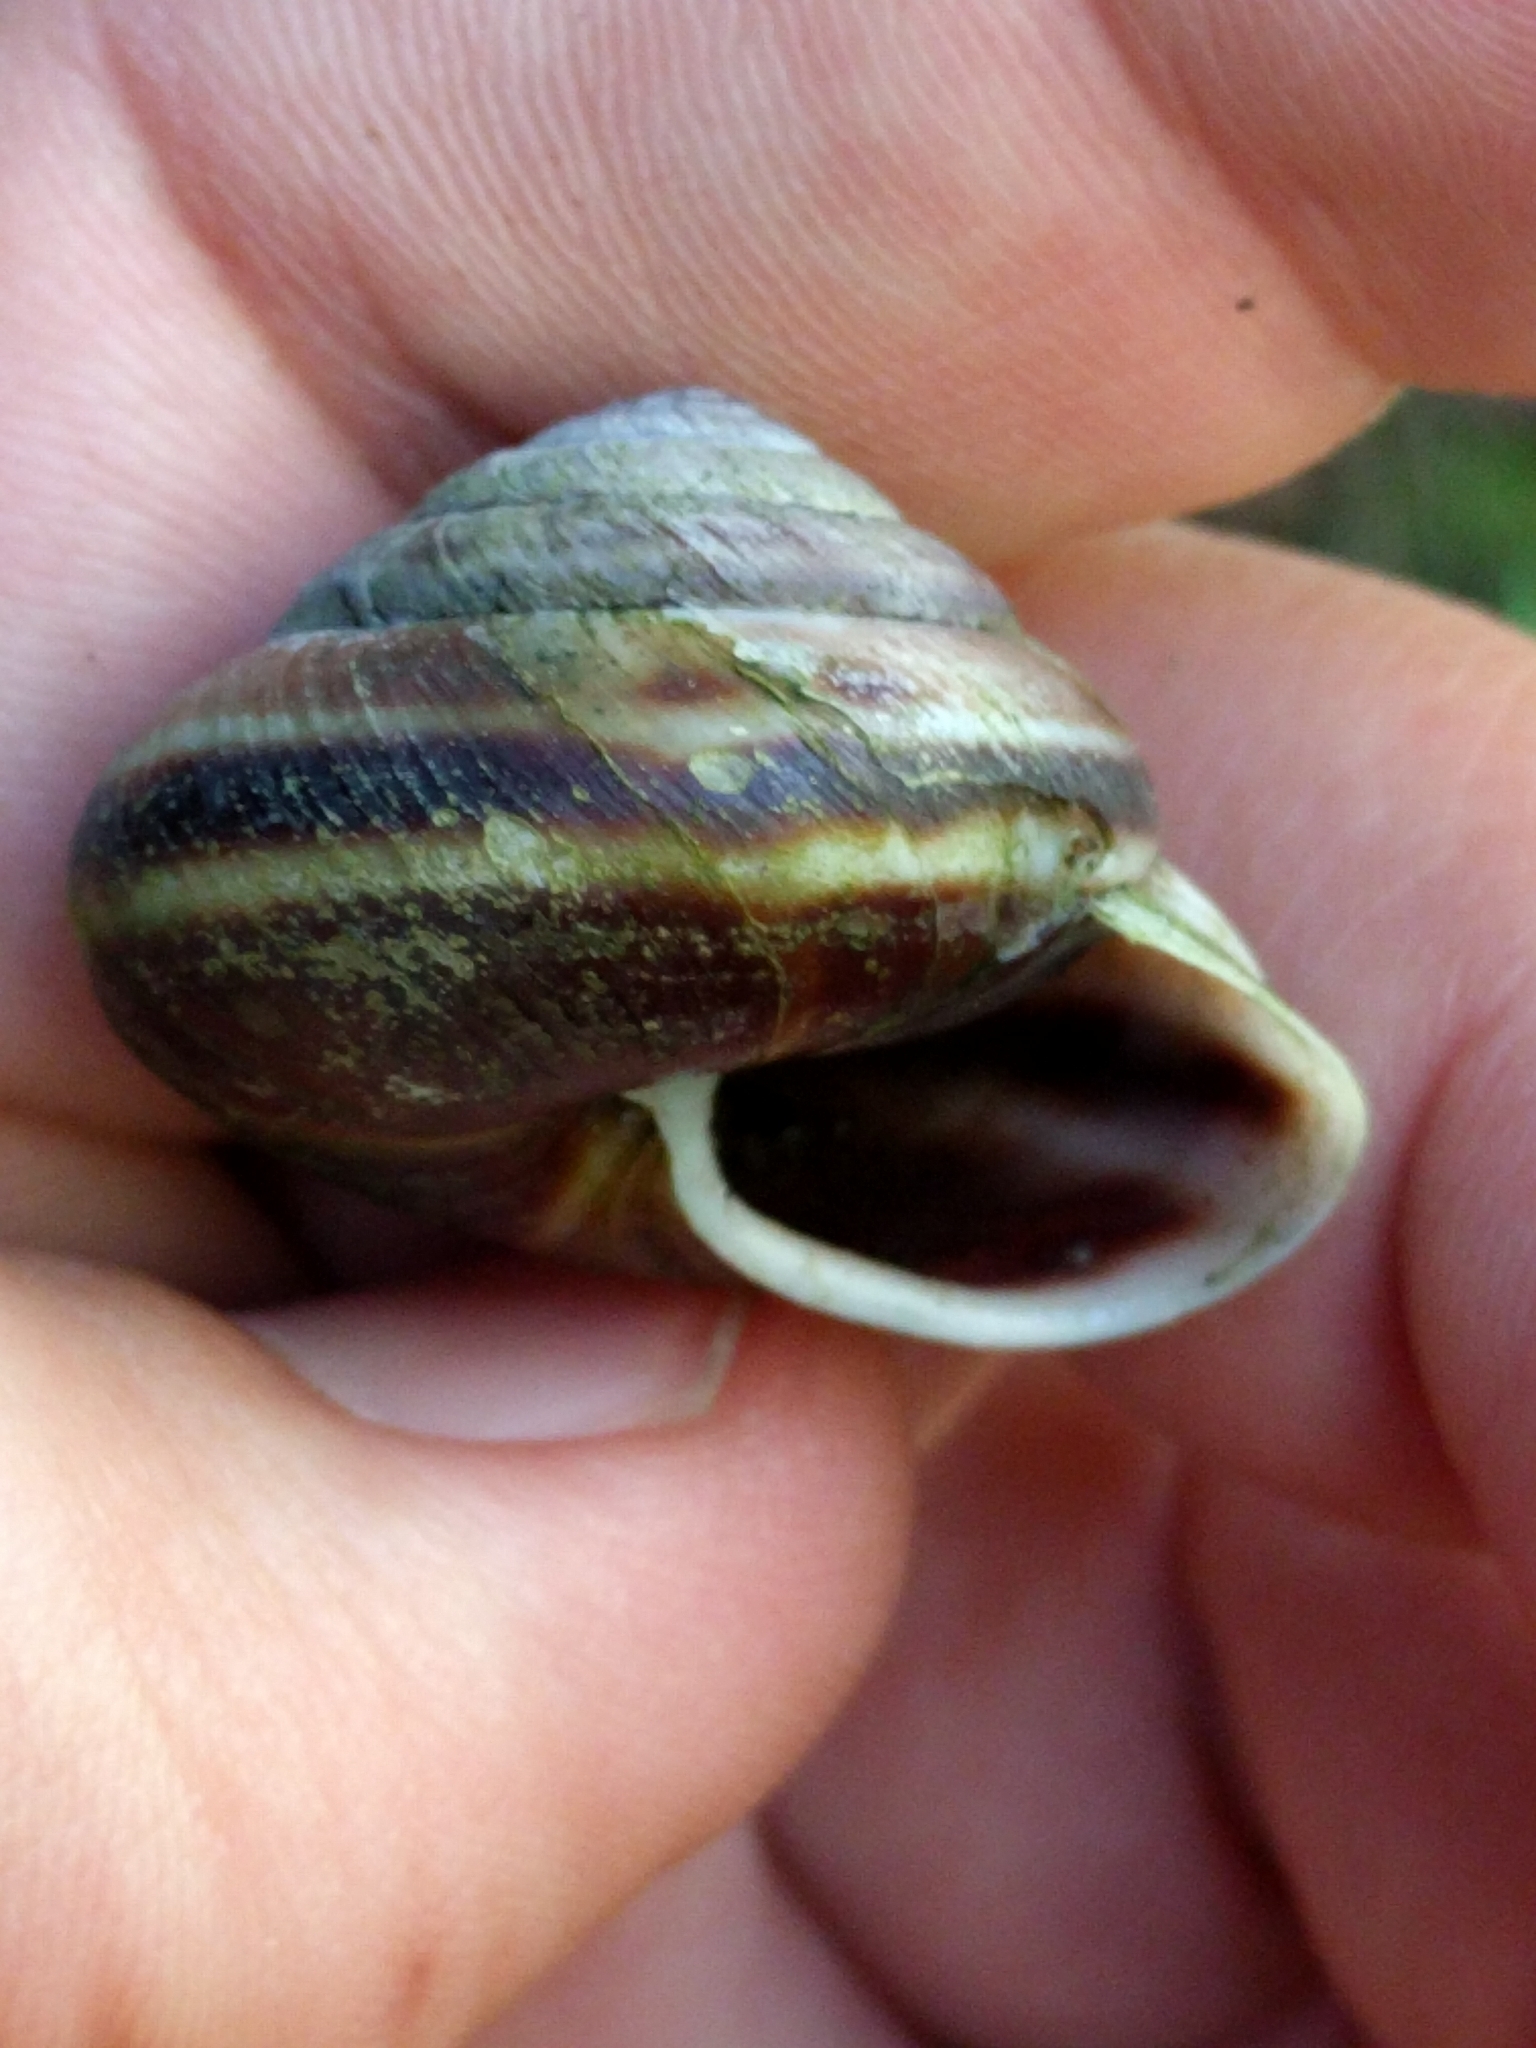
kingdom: Animalia
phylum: Mollusca
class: Gastropoda
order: Stylommatophora
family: Xanthonychidae
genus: Monadenia
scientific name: Monadenia fidelis
